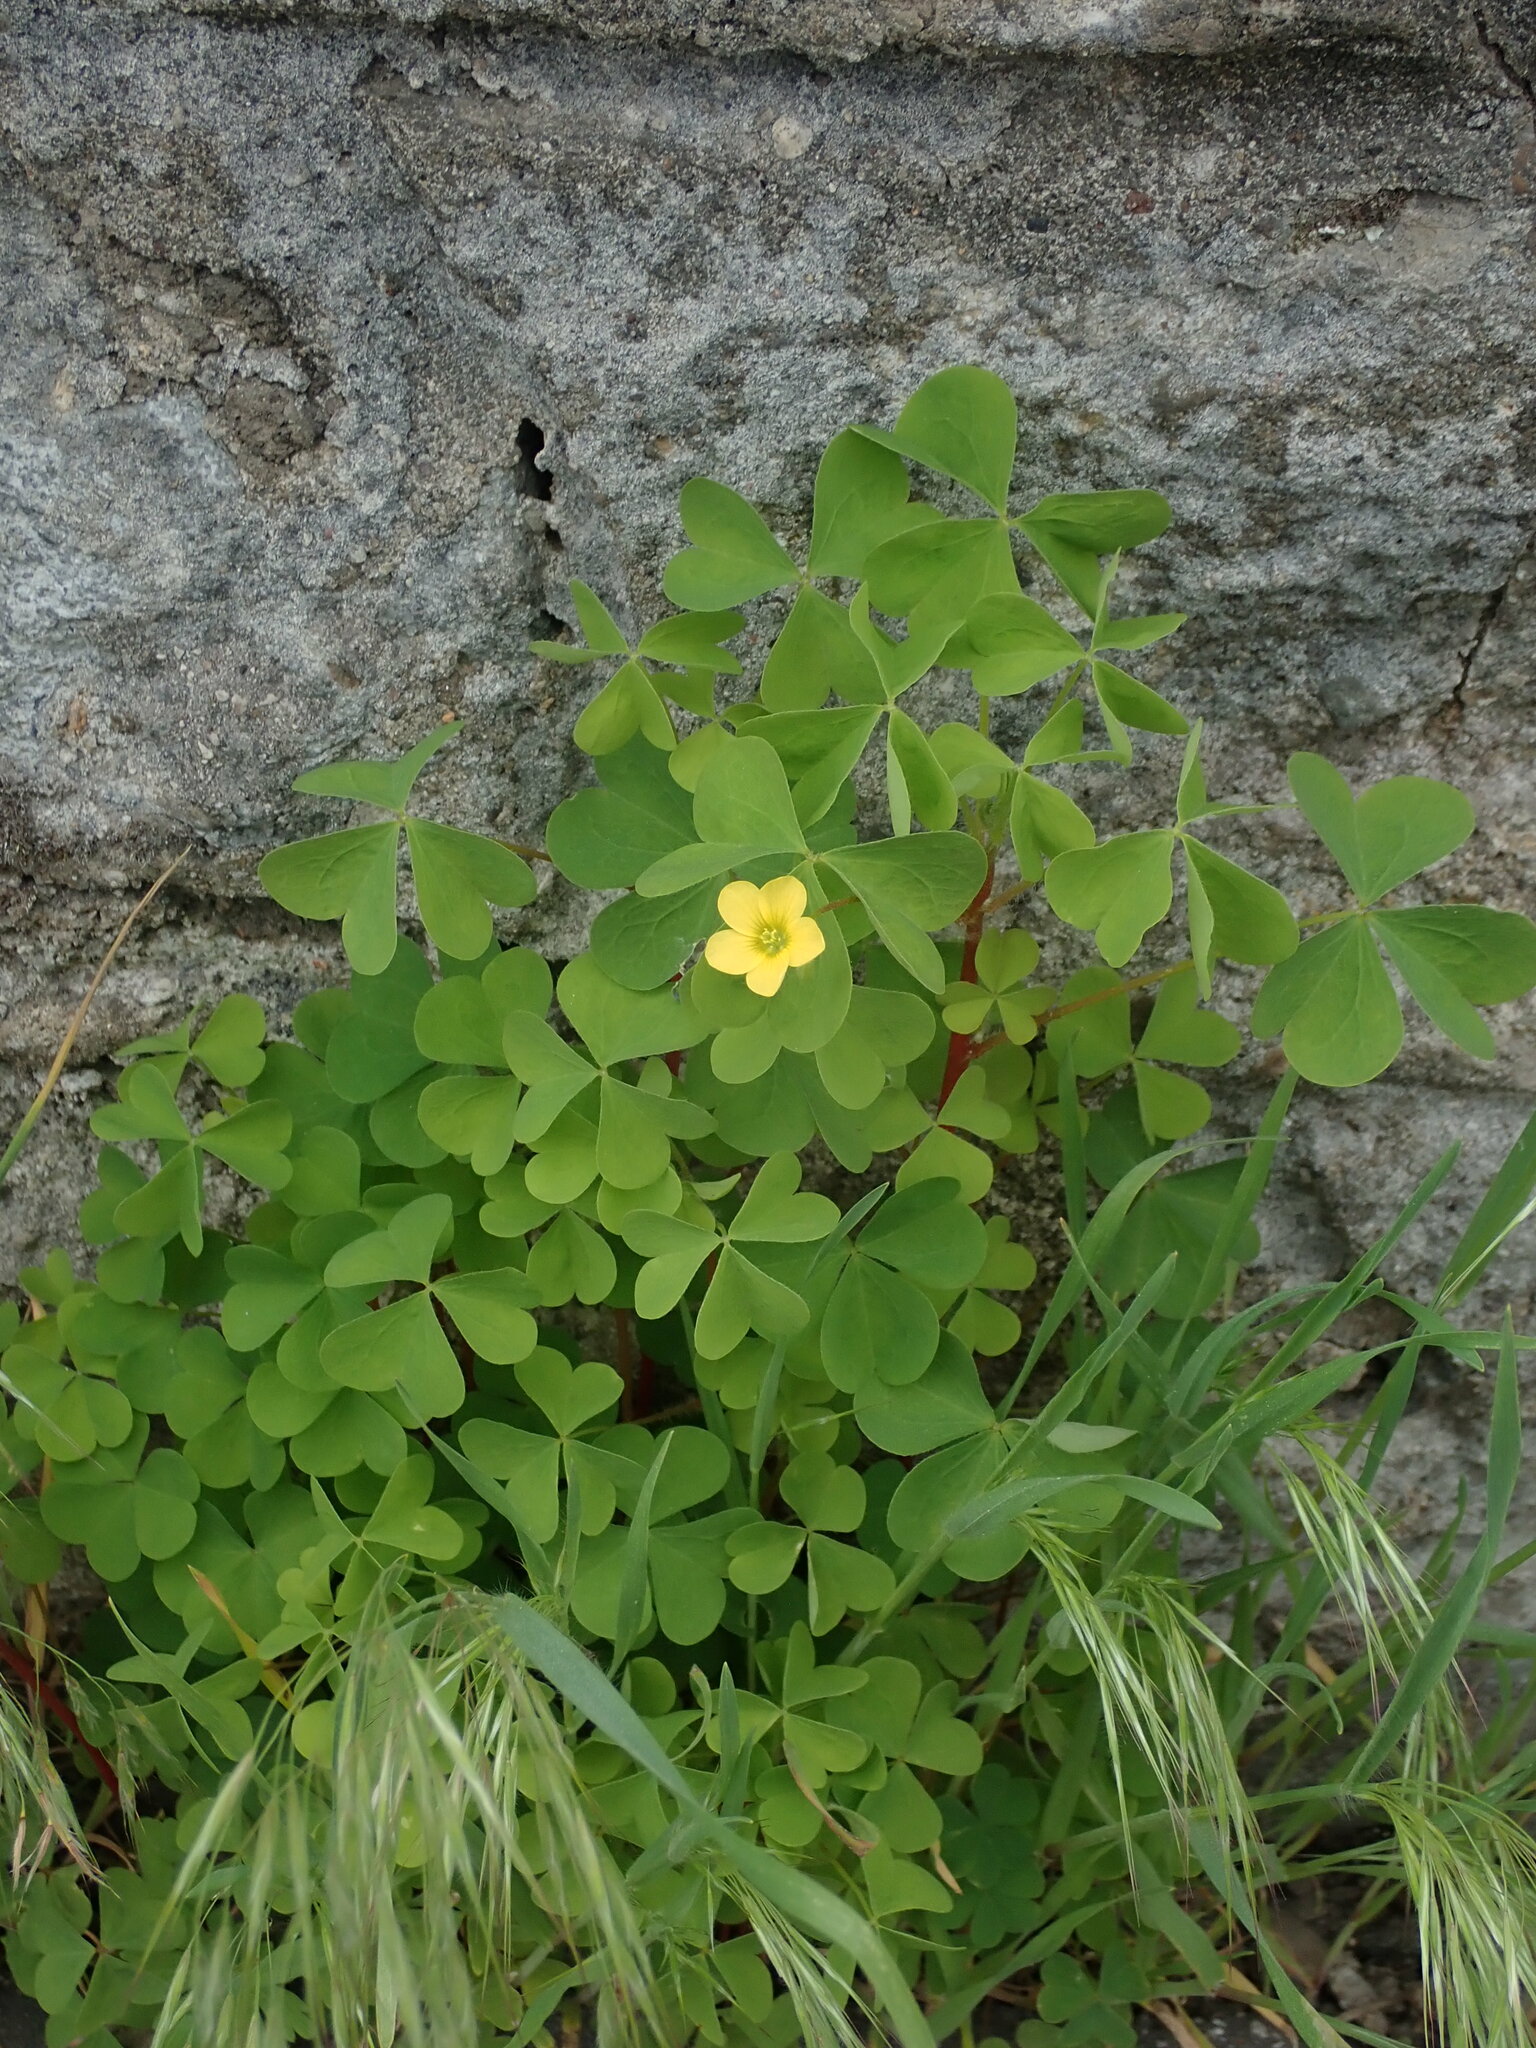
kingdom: Plantae
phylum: Tracheophyta
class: Magnoliopsida
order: Oxalidales
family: Oxalidaceae
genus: Oxalis
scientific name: Oxalis stricta
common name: Upright yellow-sorrel
